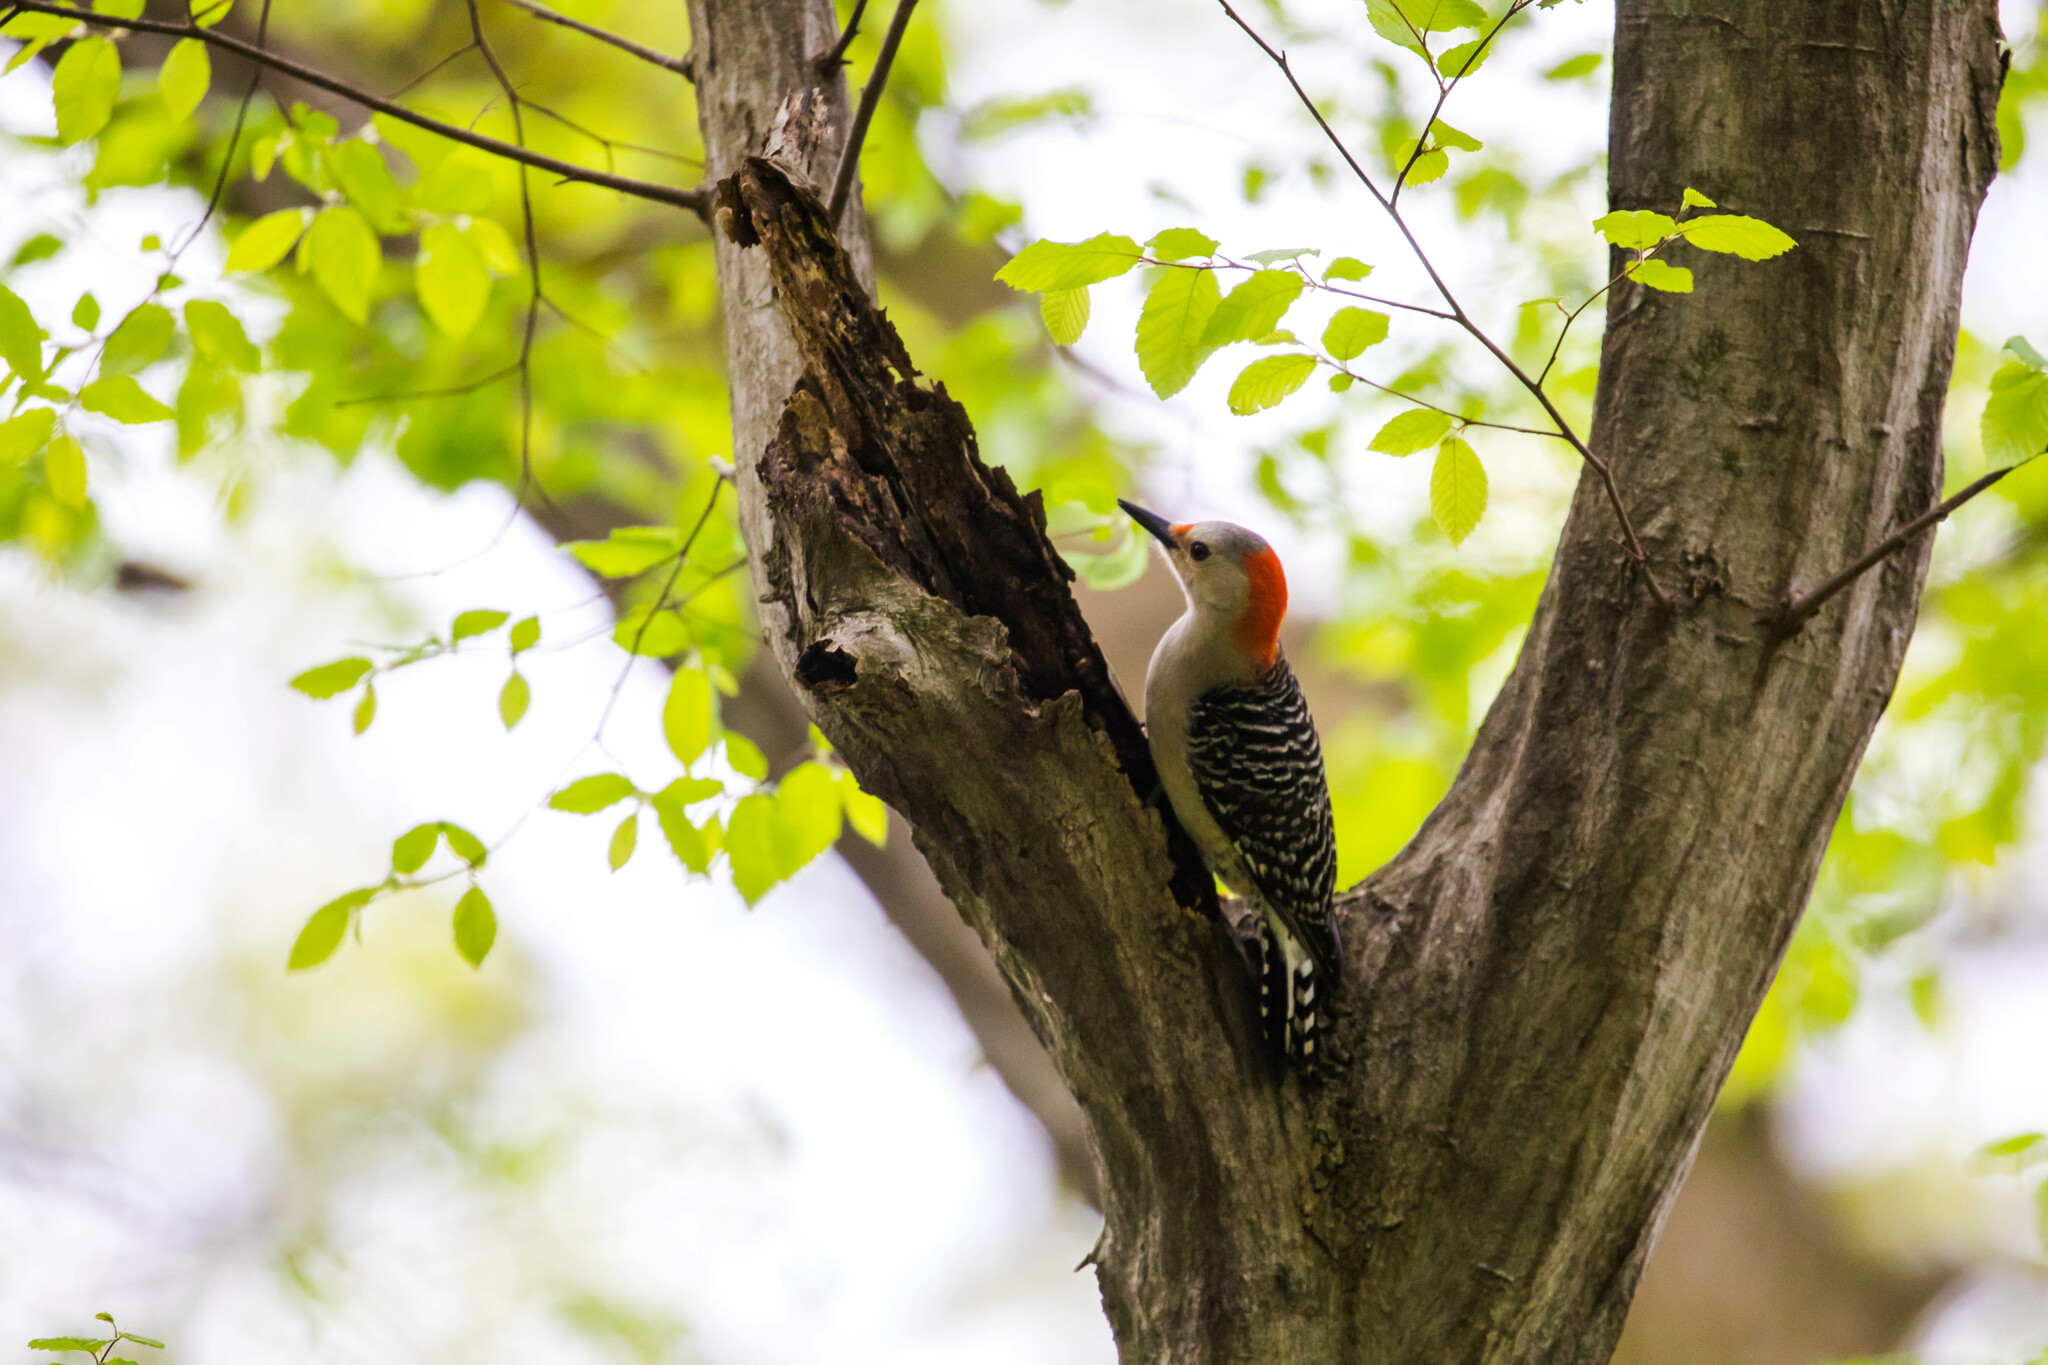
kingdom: Animalia
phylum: Chordata
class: Aves
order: Piciformes
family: Picidae
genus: Melanerpes
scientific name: Melanerpes carolinus
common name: Red-bellied woodpecker
